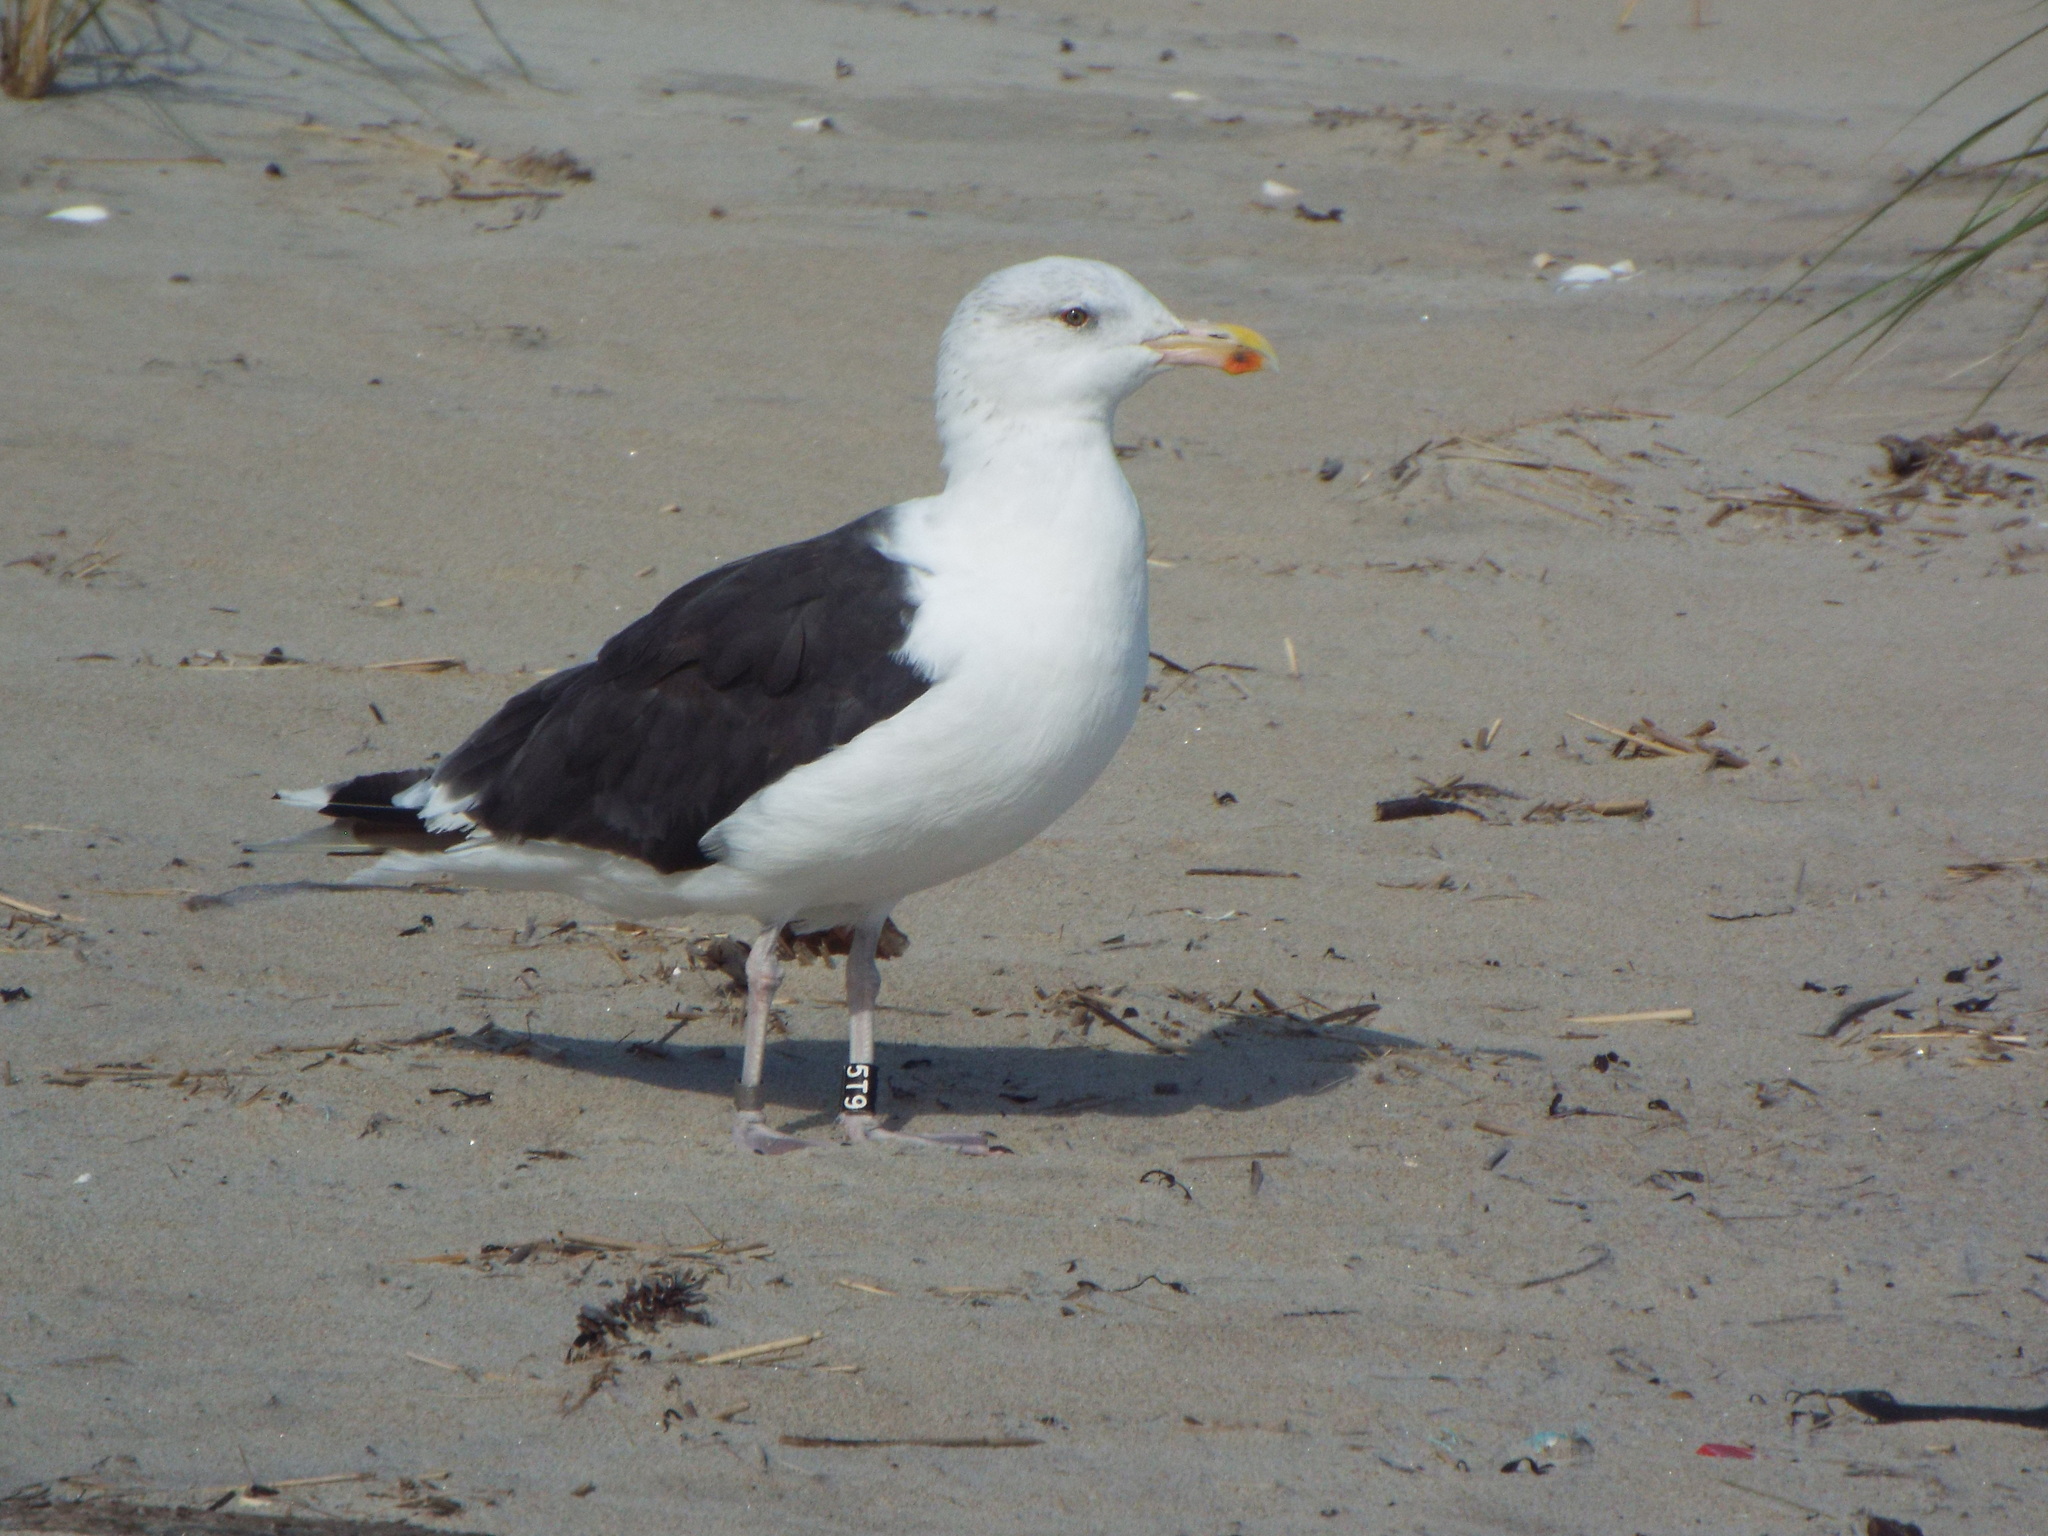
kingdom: Animalia
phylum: Chordata
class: Aves
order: Charadriiformes
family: Laridae
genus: Larus
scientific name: Larus marinus
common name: Great black-backed gull
